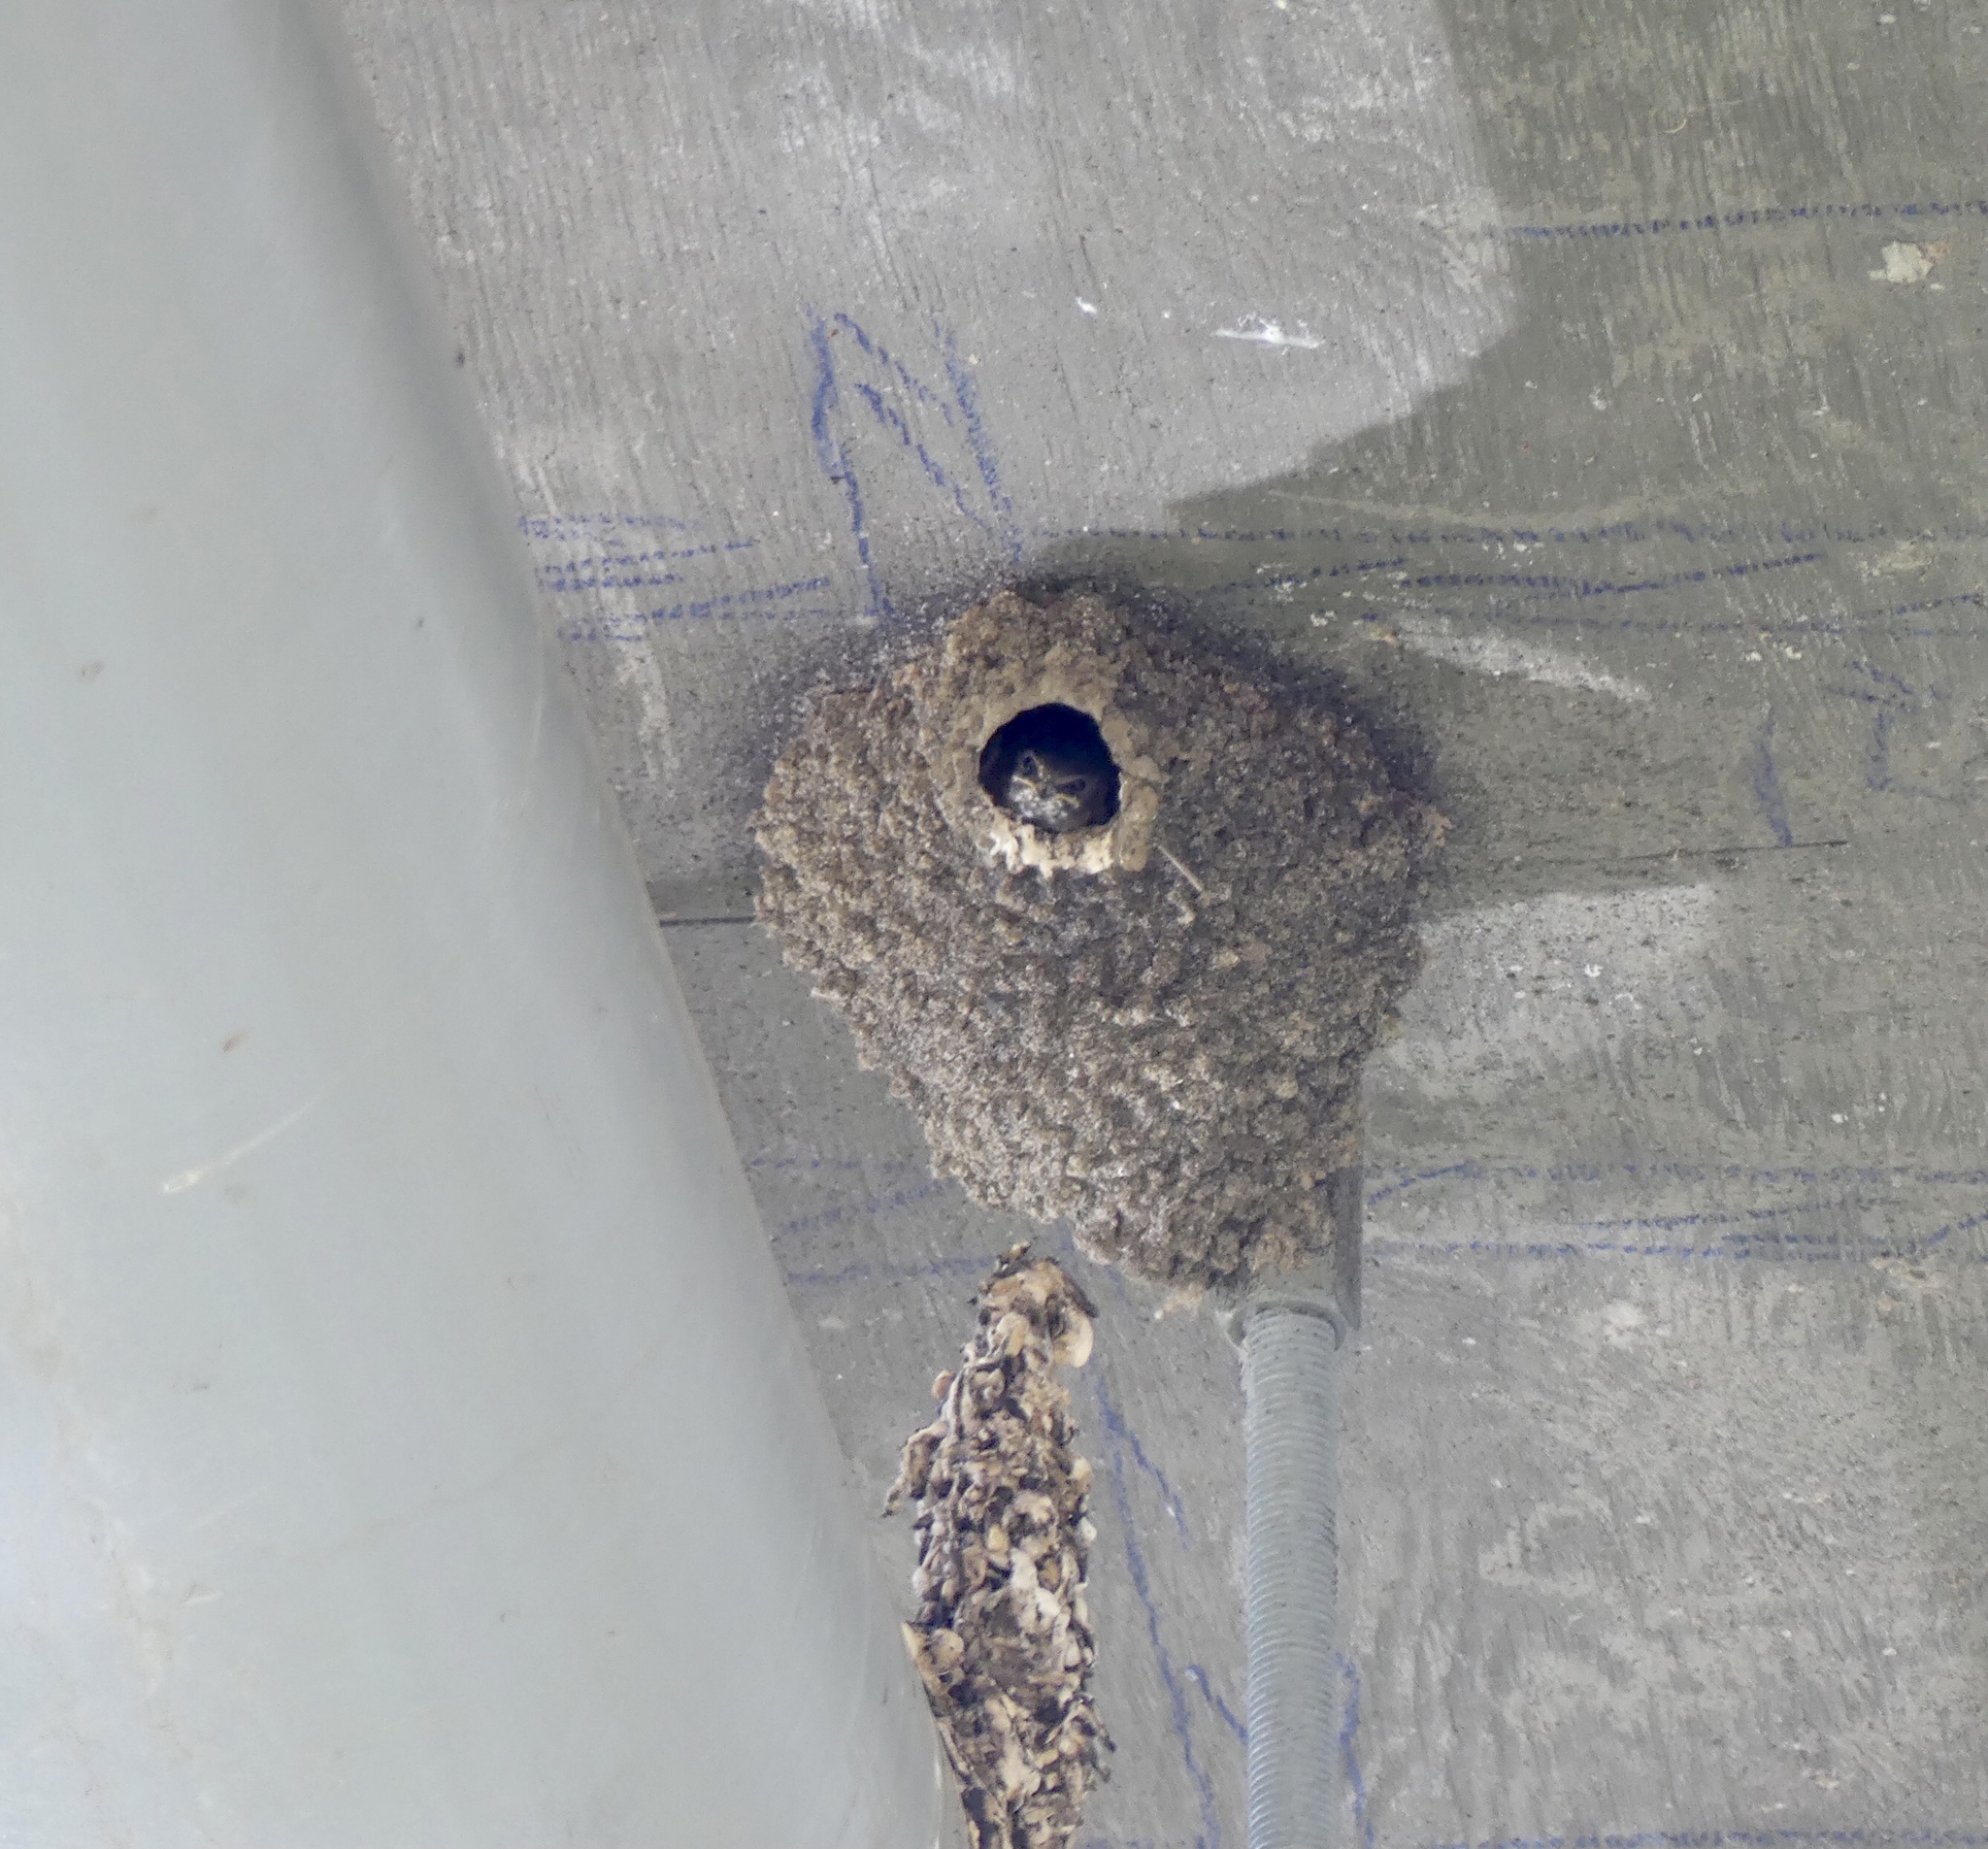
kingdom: Animalia
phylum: Chordata
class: Aves
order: Passeriformes
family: Hirundinidae
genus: Petrochelidon
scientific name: Petrochelidon pyrrhonota
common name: American cliff swallow
